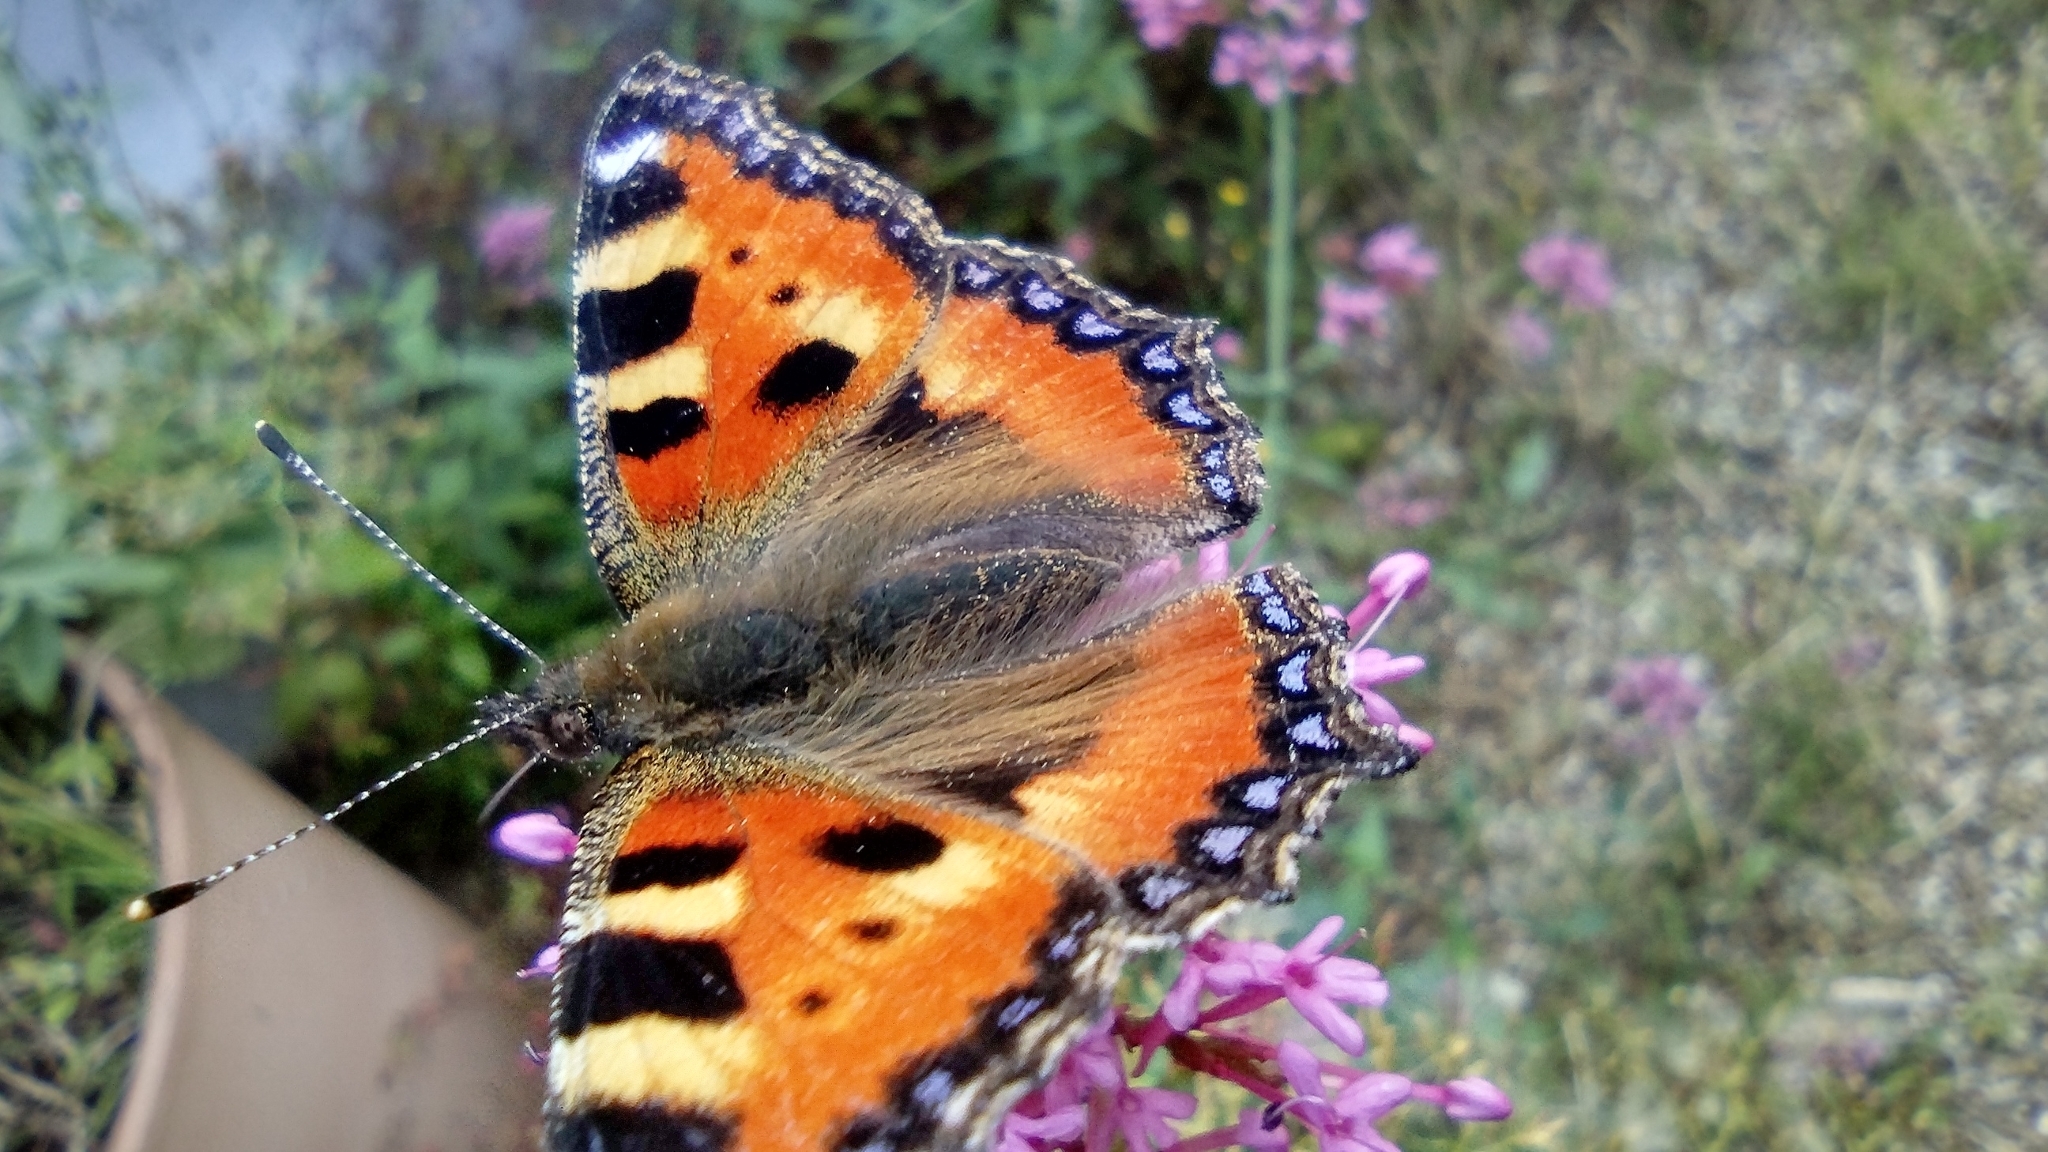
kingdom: Animalia
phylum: Arthropoda
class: Insecta
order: Lepidoptera
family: Nymphalidae
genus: Aglais
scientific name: Aglais urticae
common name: Small tortoiseshell
